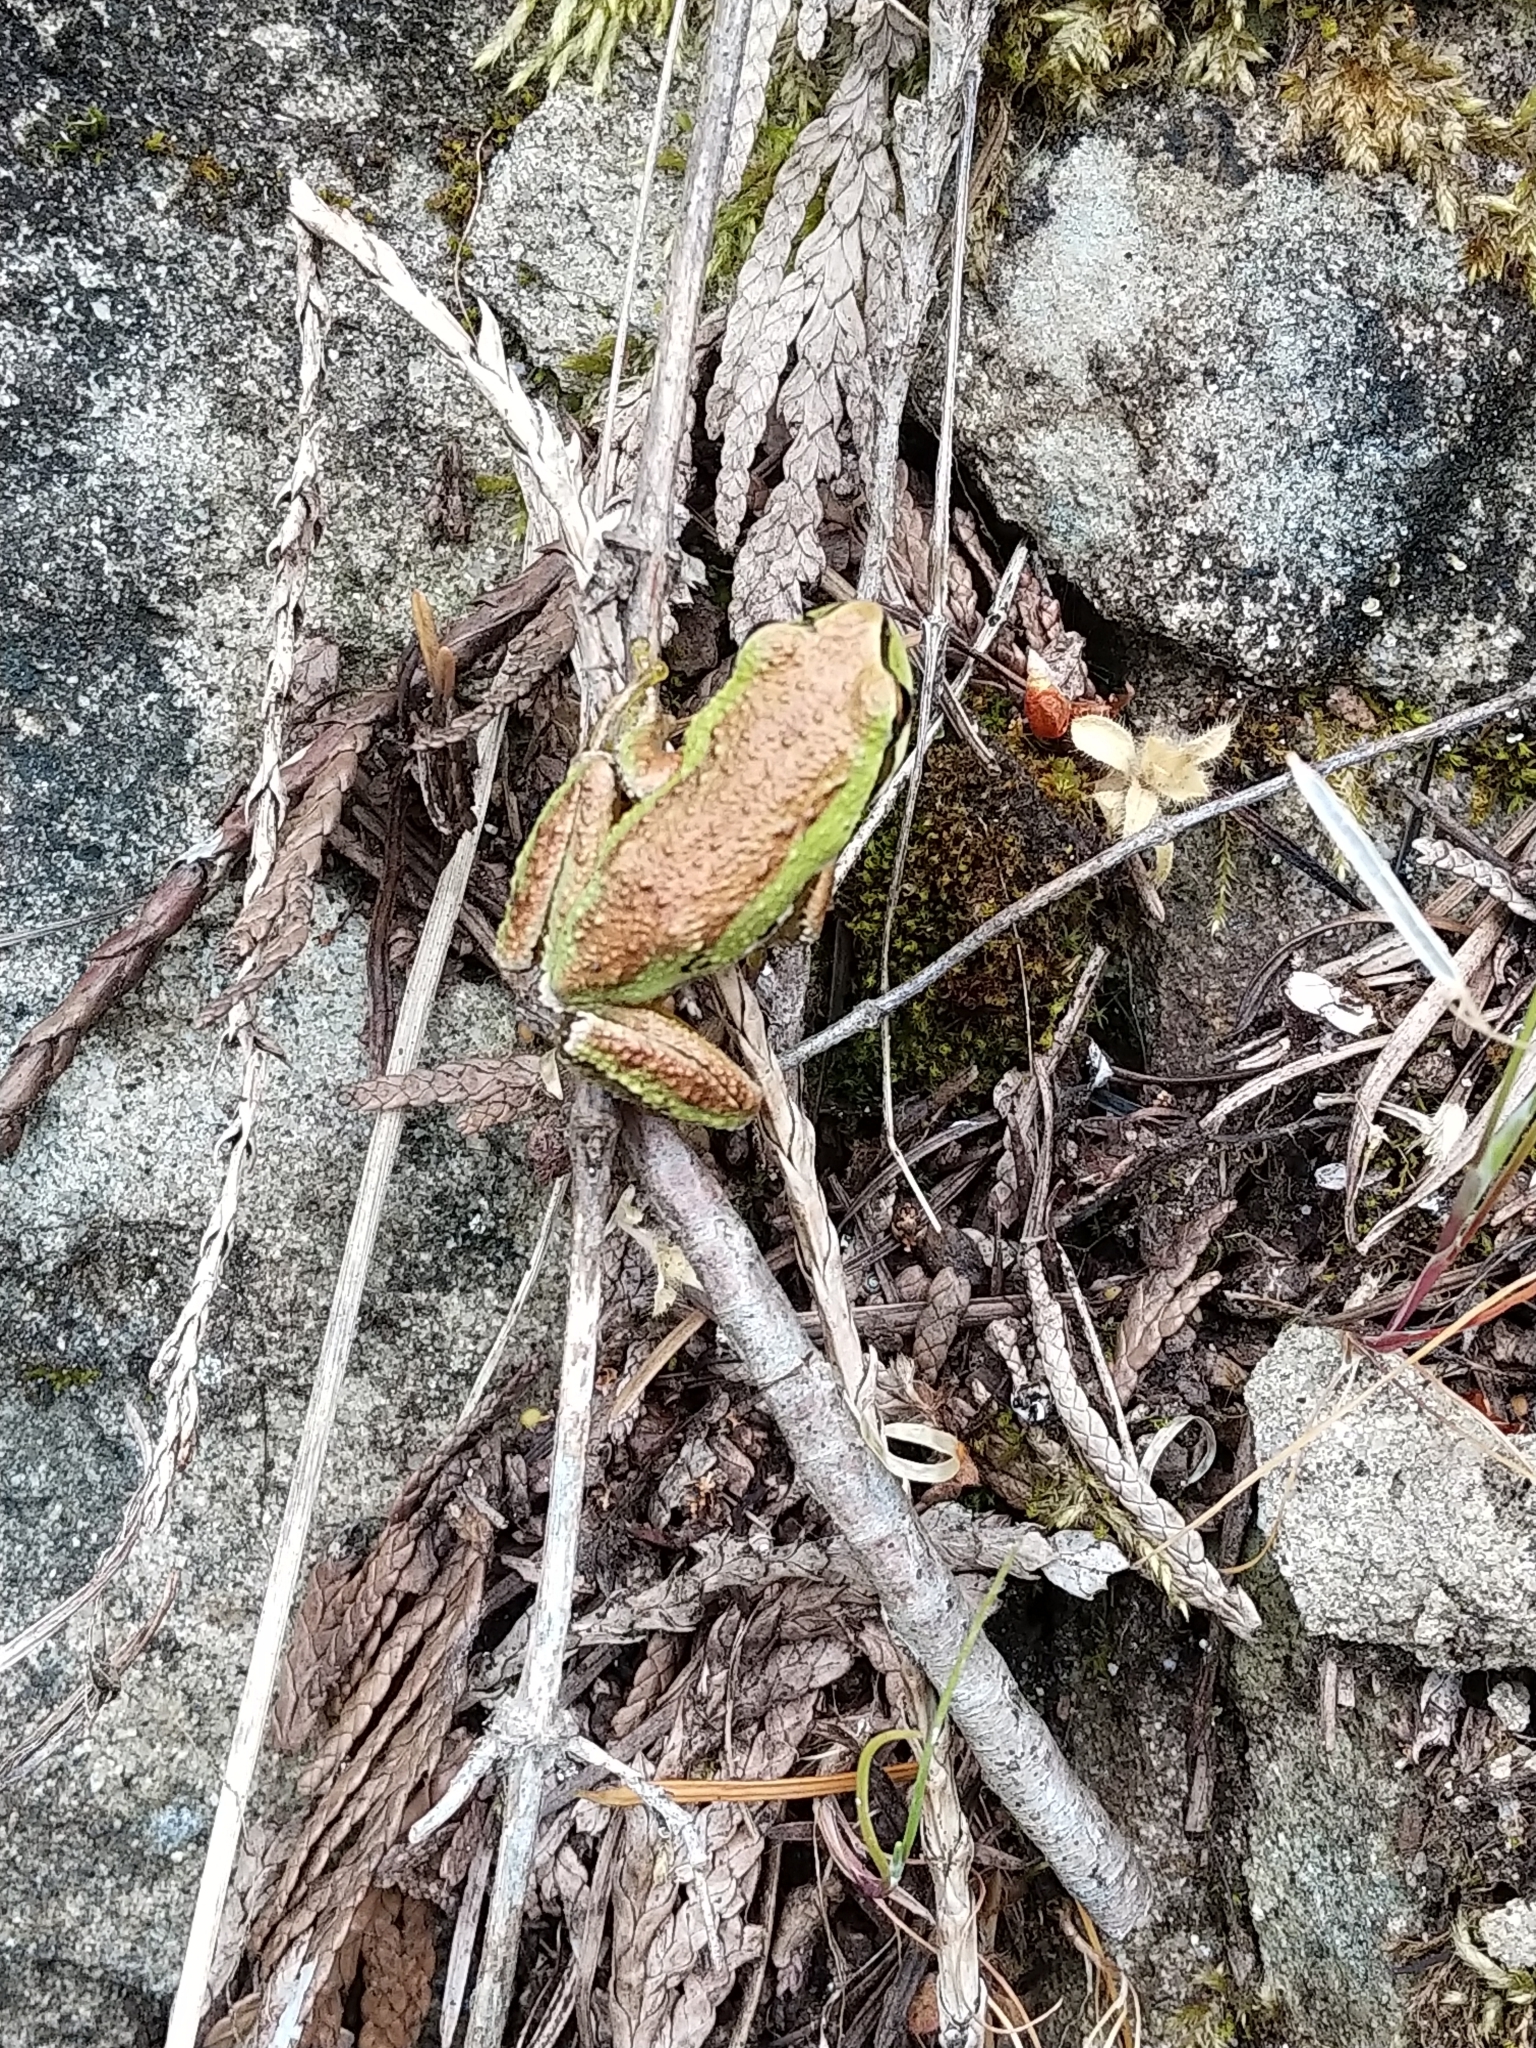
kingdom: Animalia
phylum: Chordata
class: Amphibia
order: Anura
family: Hylidae
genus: Pseudacris
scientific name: Pseudacris regilla
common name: Pacific chorus frog
